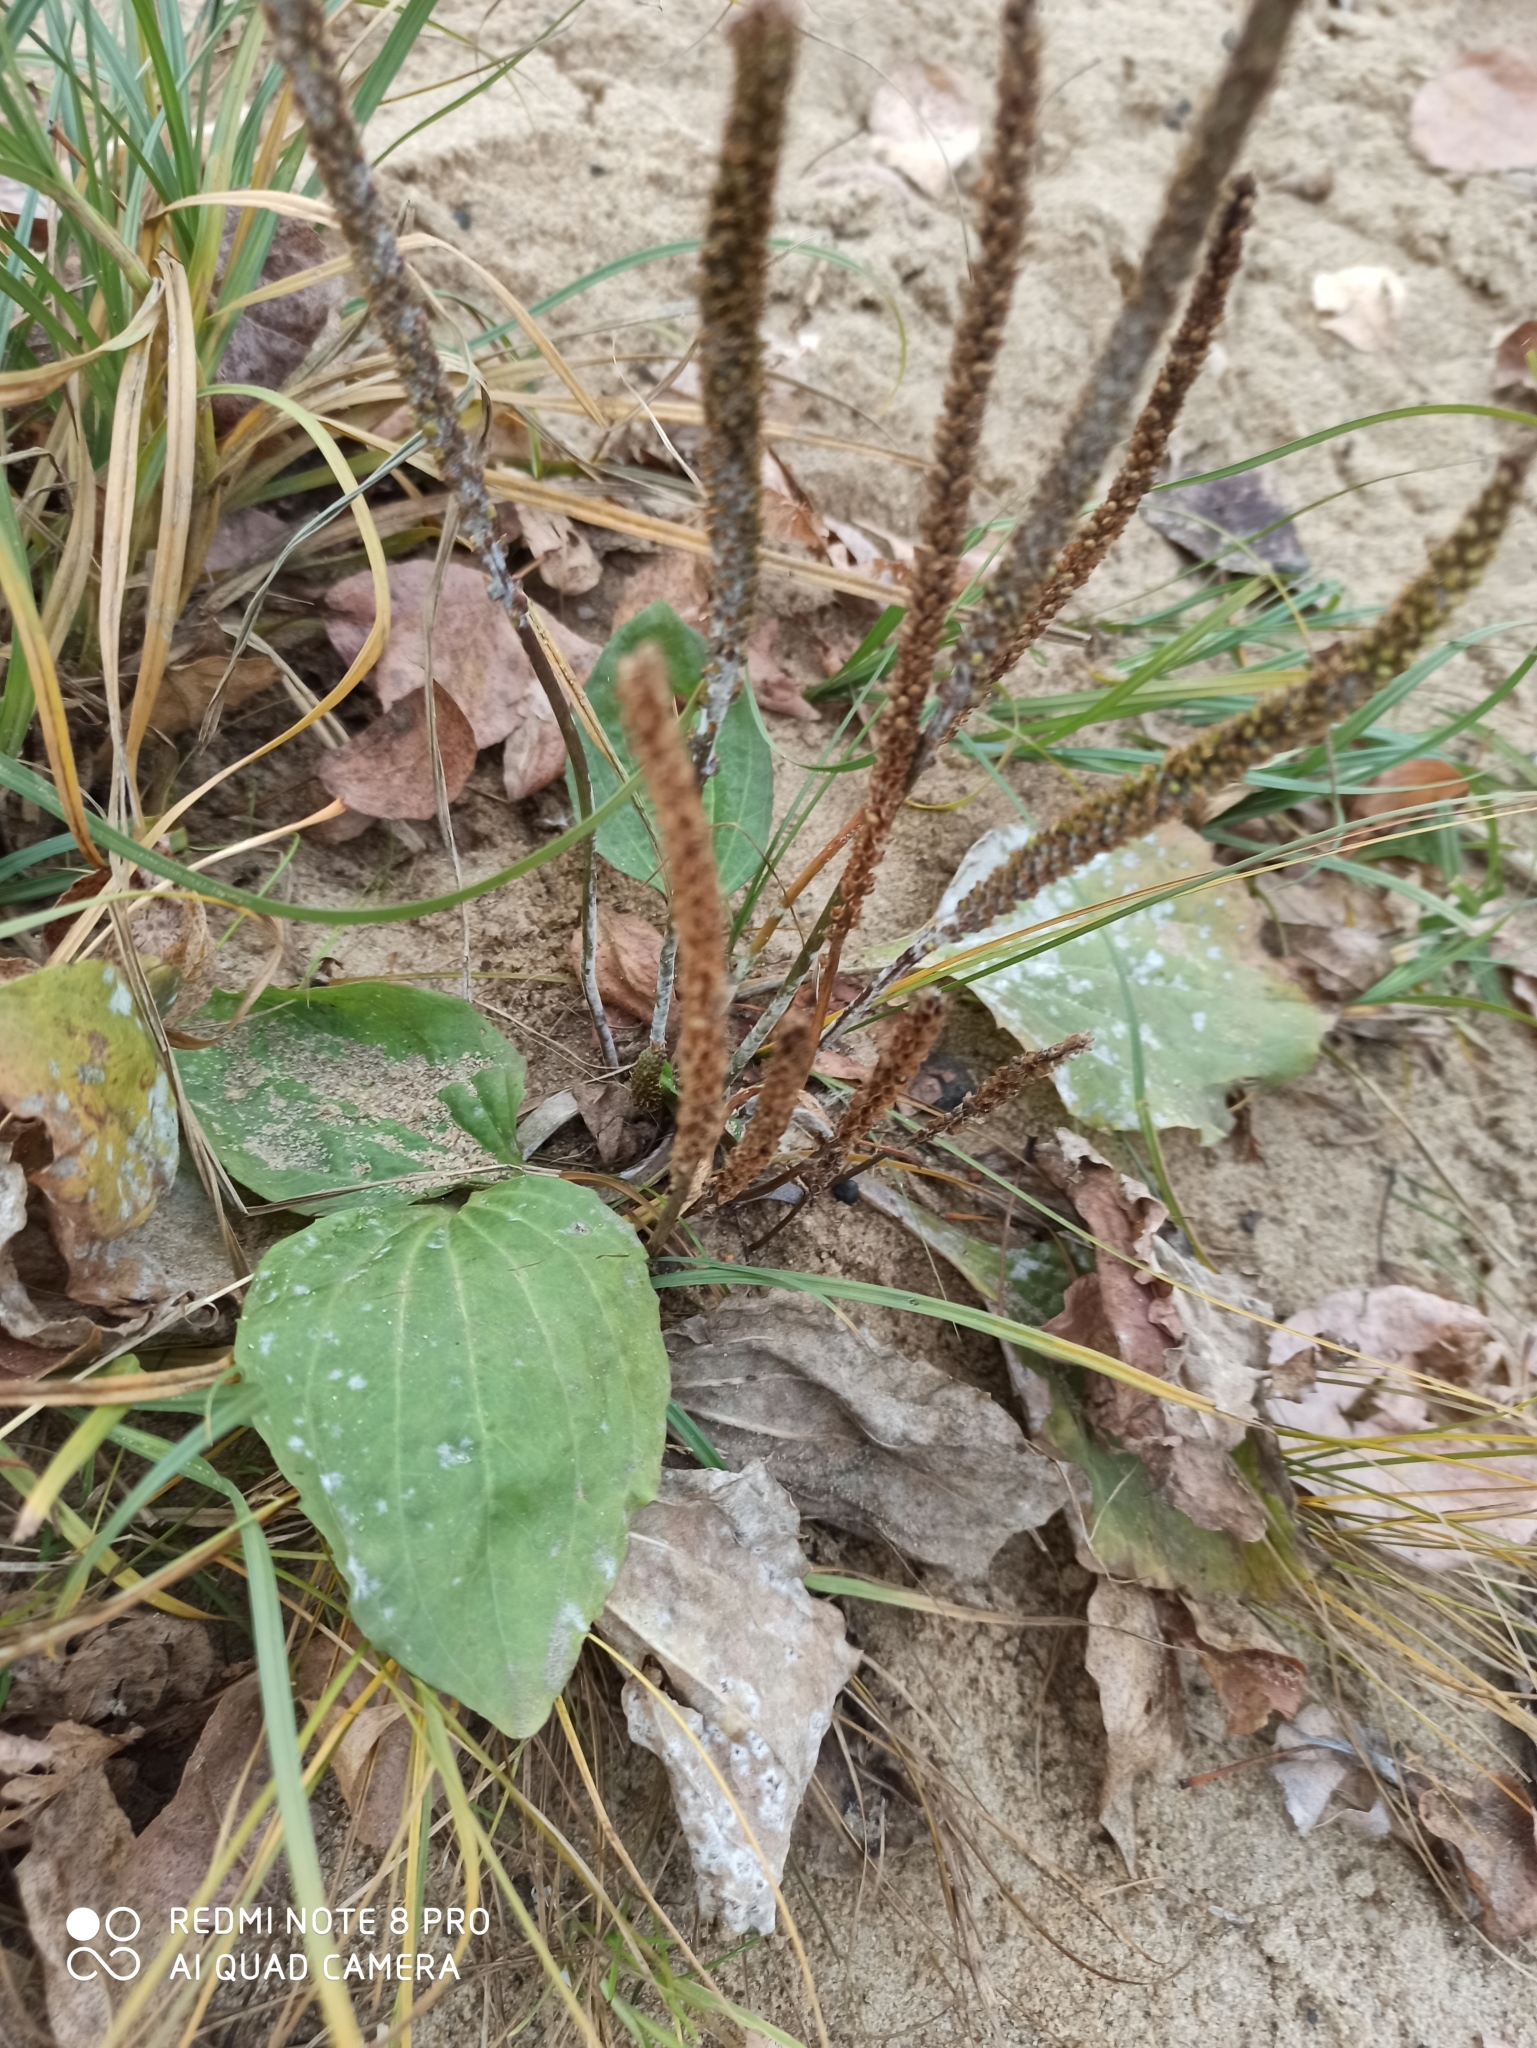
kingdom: Plantae
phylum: Tracheophyta
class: Magnoliopsida
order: Lamiales
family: Plantaginaceae
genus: Plantago
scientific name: Plantago major
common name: Common plantain
